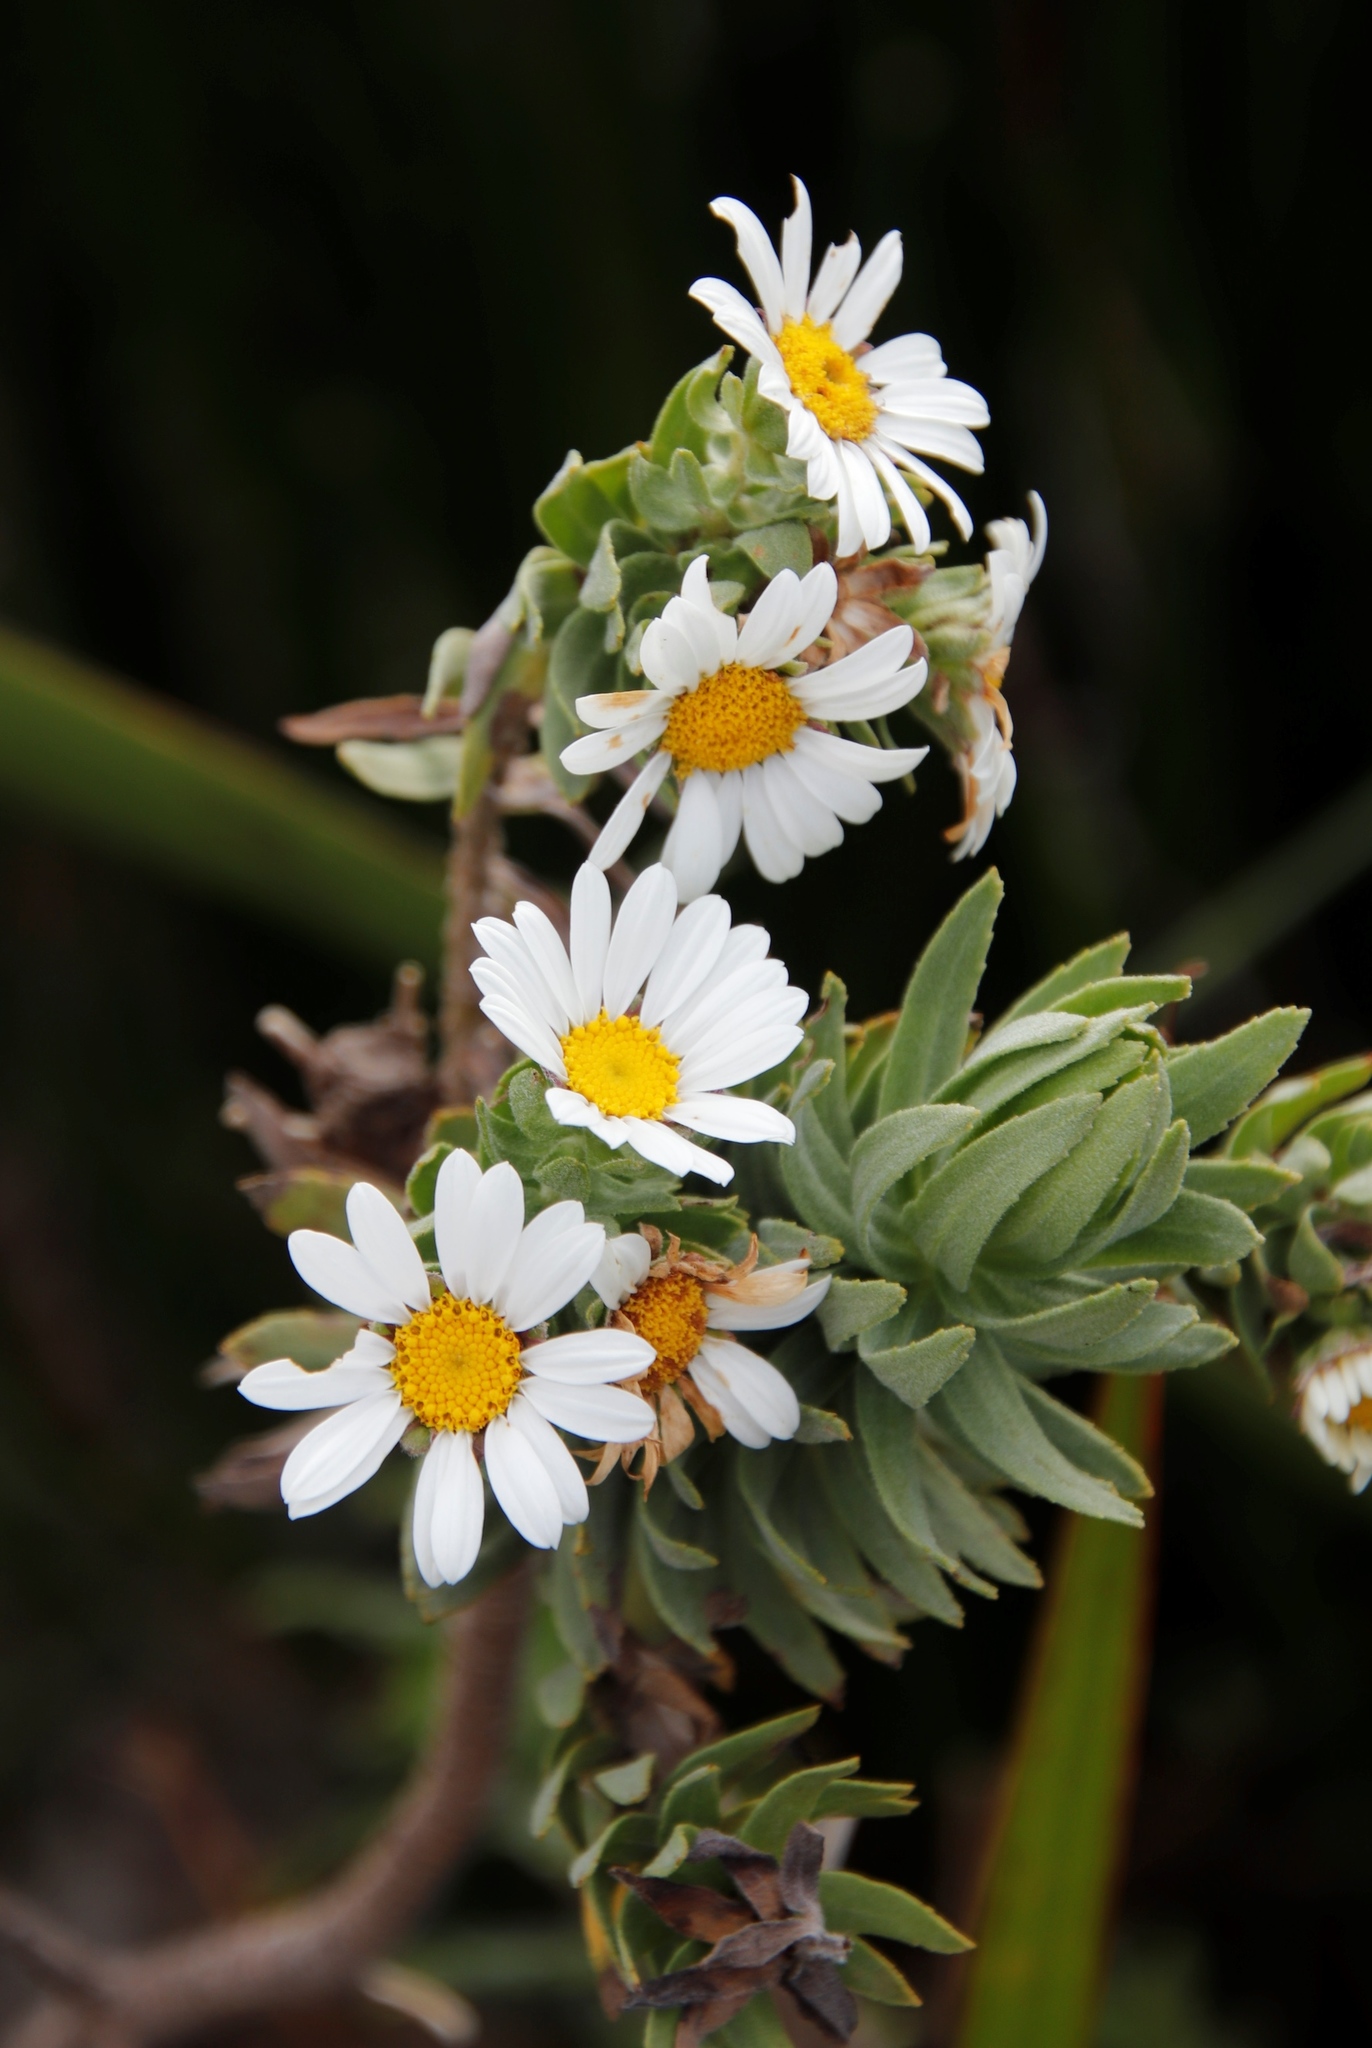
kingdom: Plantae
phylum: Tracheophyta
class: Magnoliopsida
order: Asterales
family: Asteraceae
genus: Osmitopsis
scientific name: Osmitopsis asteriscoides
